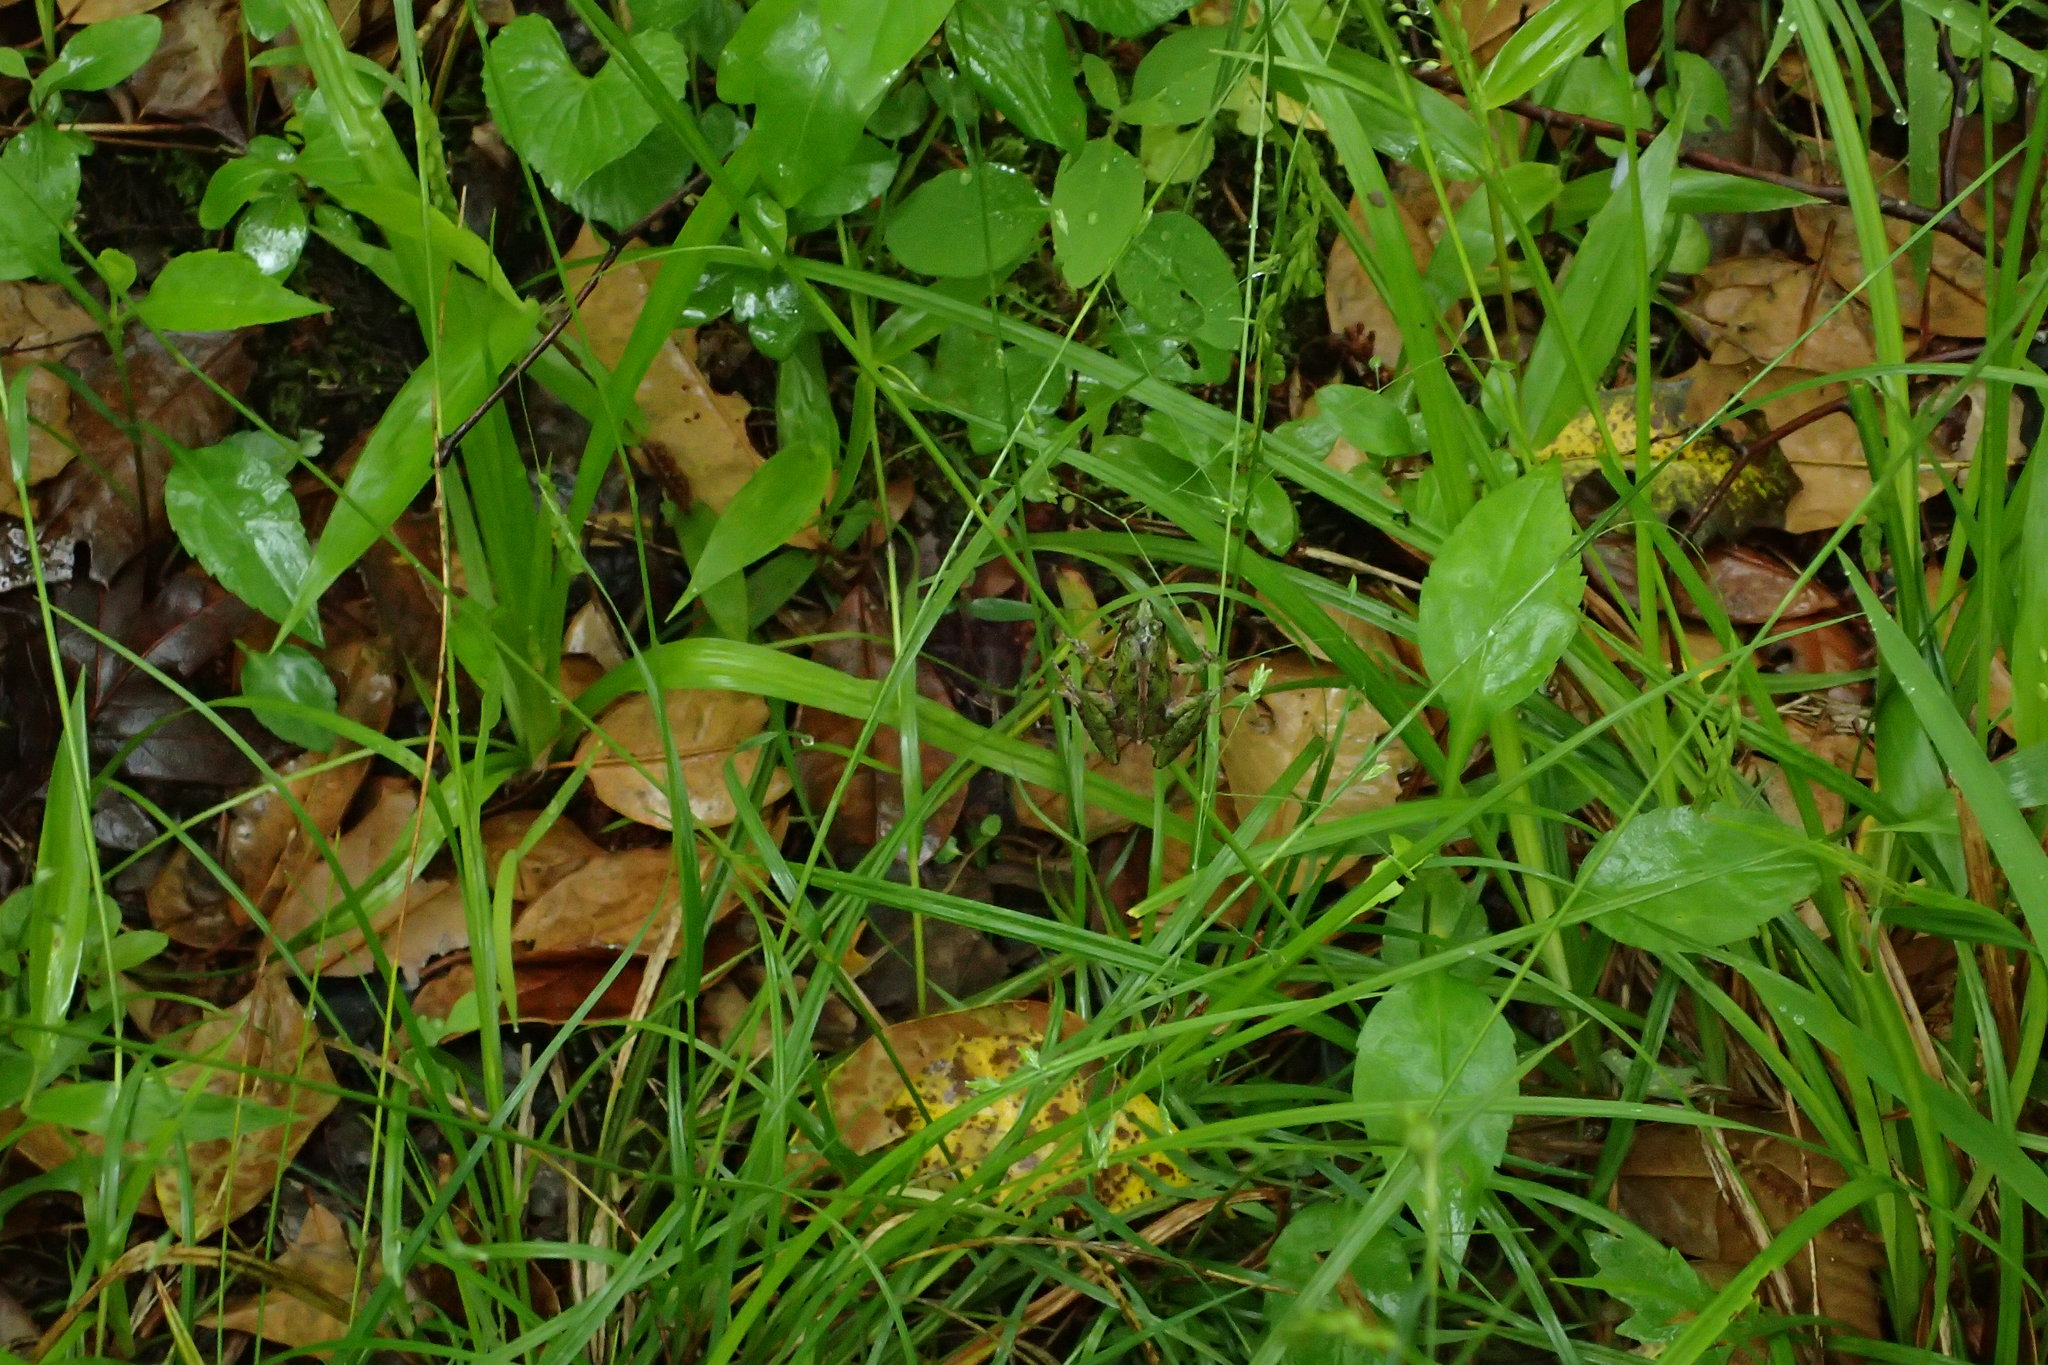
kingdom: Animalia
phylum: Chordata
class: Amphibia
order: Anura
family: Hylidae
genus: Acris
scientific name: Acris gryllus
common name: Southern cricket frog
